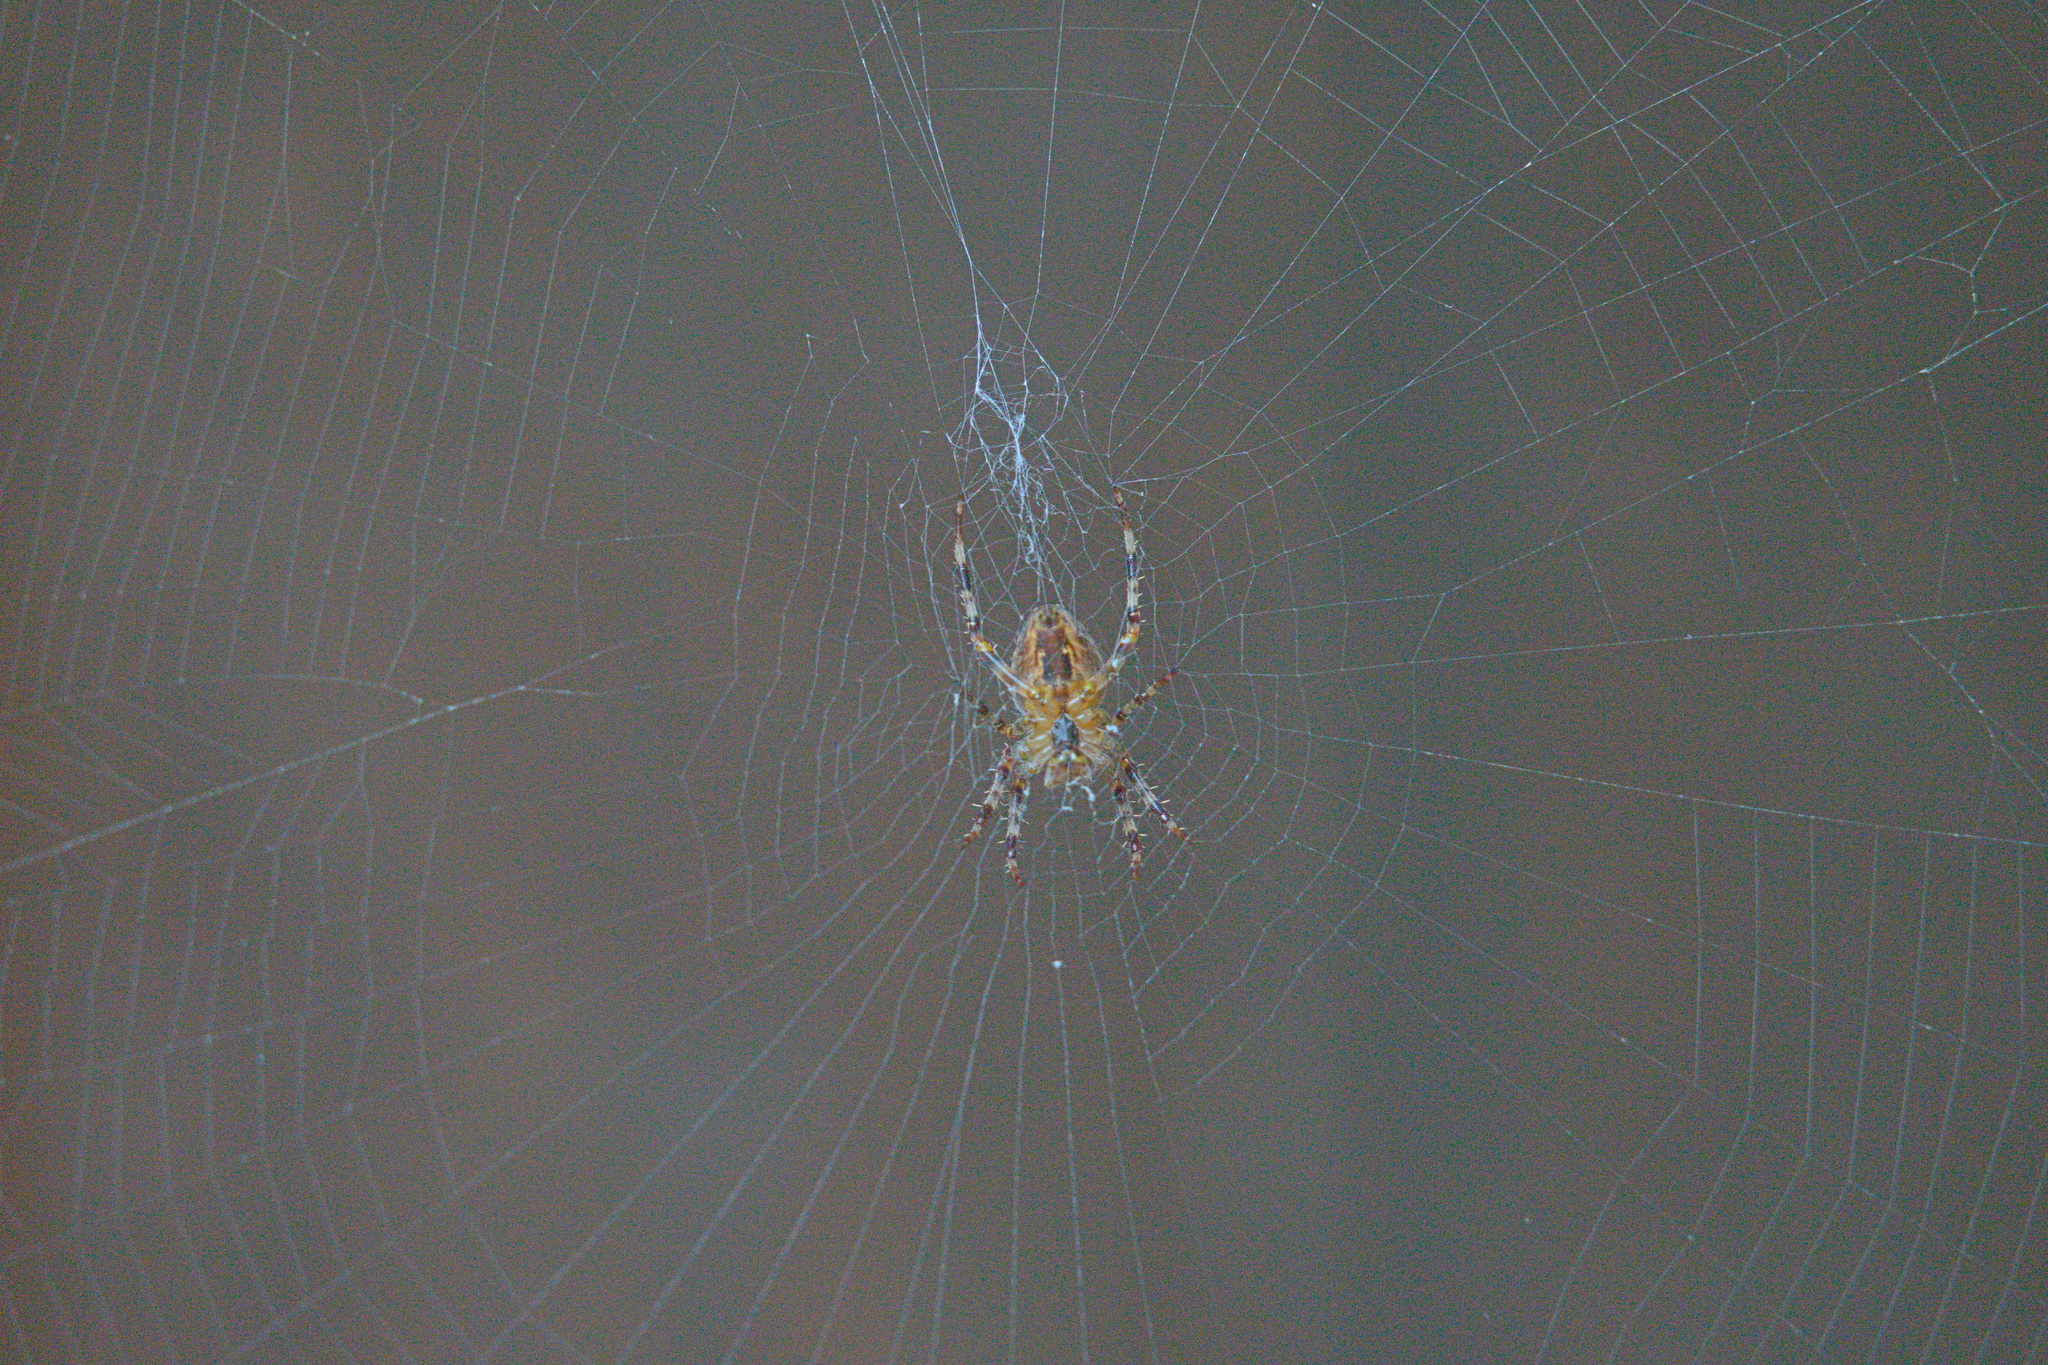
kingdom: Animalia
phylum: Arthropoda
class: Arachnida
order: Araneae
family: Araneidae
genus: Araneus
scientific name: Araneus diadematus
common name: Cross orbweaver
